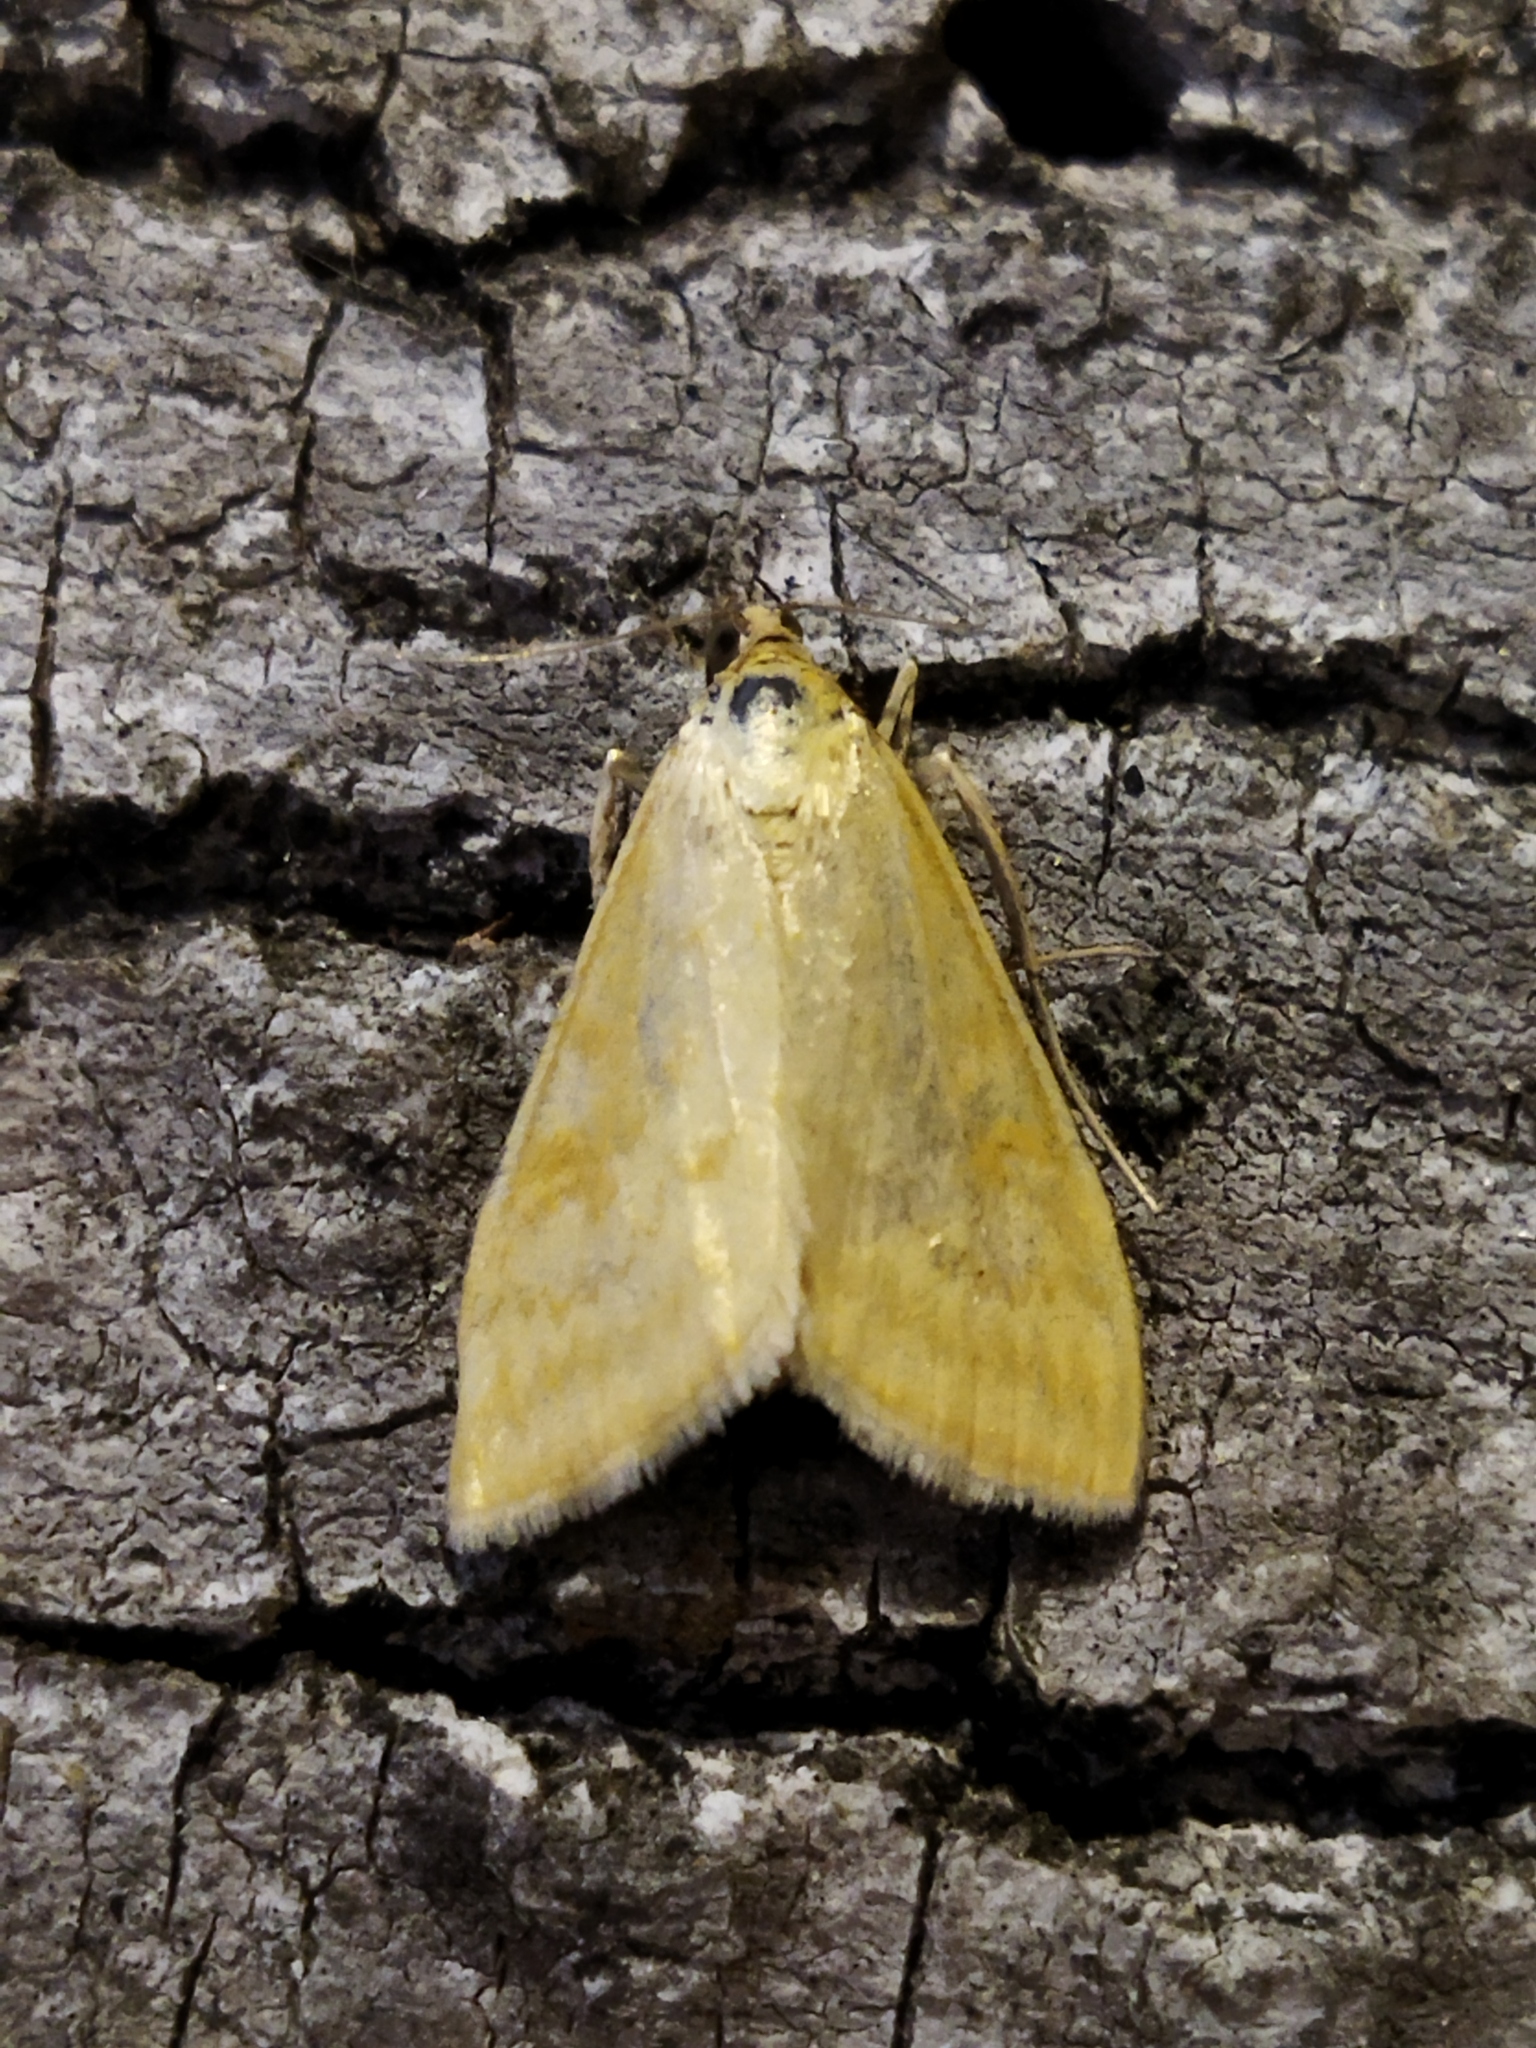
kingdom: Animalia
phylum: Arthropoda
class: Insecta
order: Lepidoptera
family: Crambidae
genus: Sitochroa
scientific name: Sitochroa verticalis
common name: Lesser pearl
